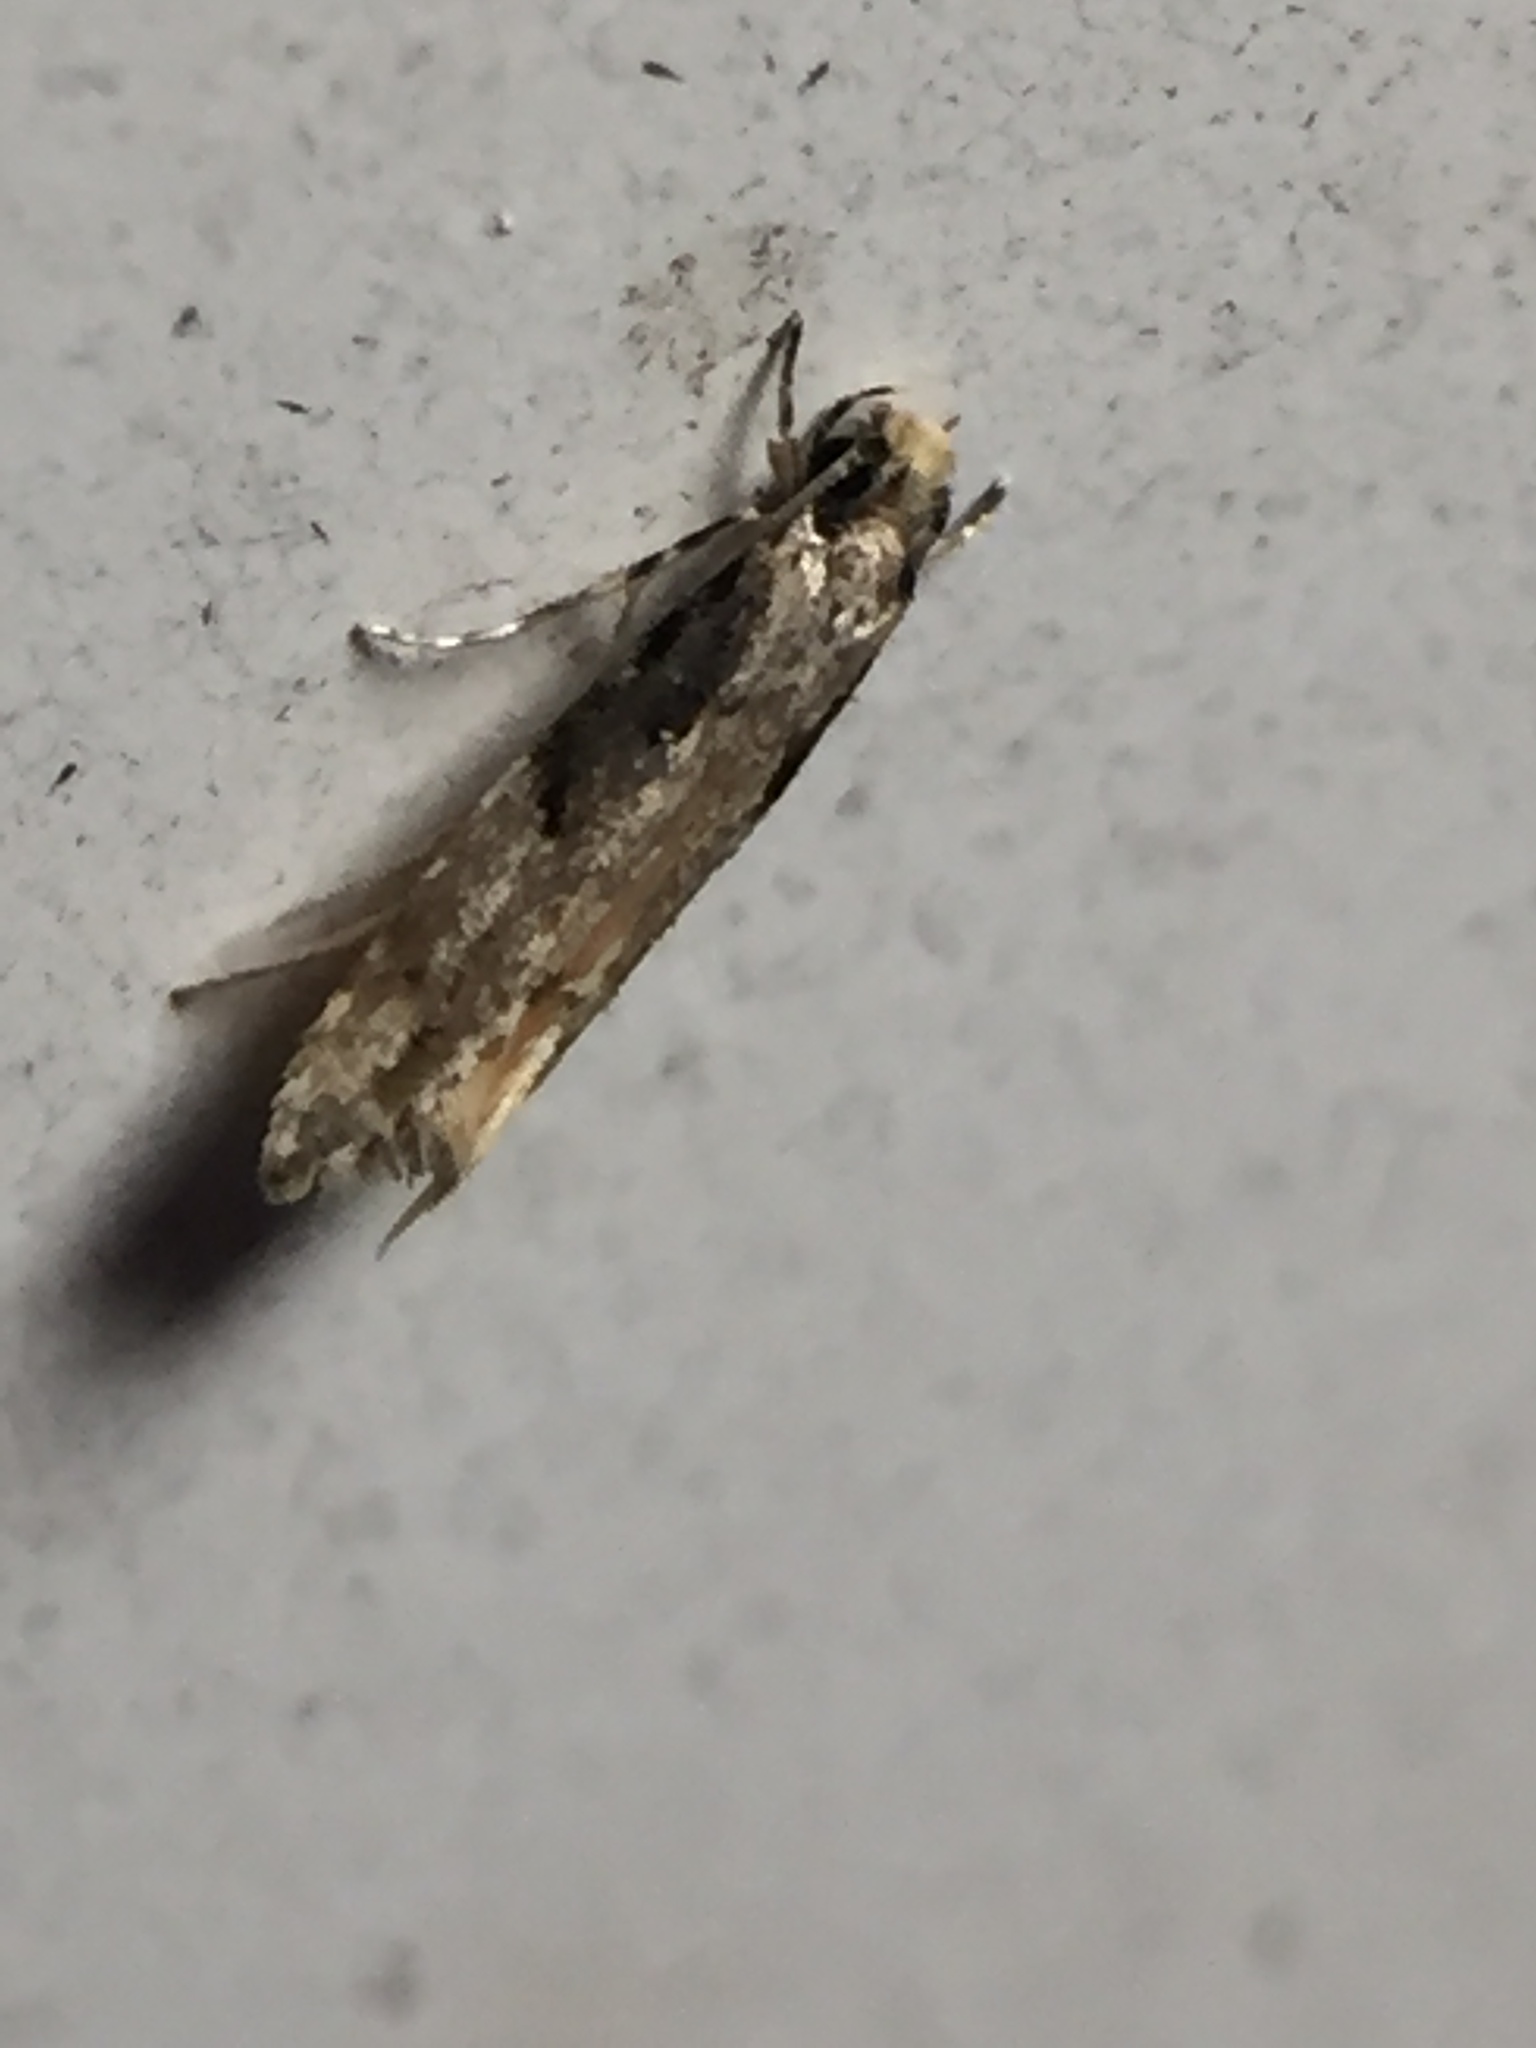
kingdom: Animalia
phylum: Arthropoda
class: Insecta
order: Lepidoptera
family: Tineidae
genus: Crypsitricha
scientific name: Crypsitricha pharotoma
